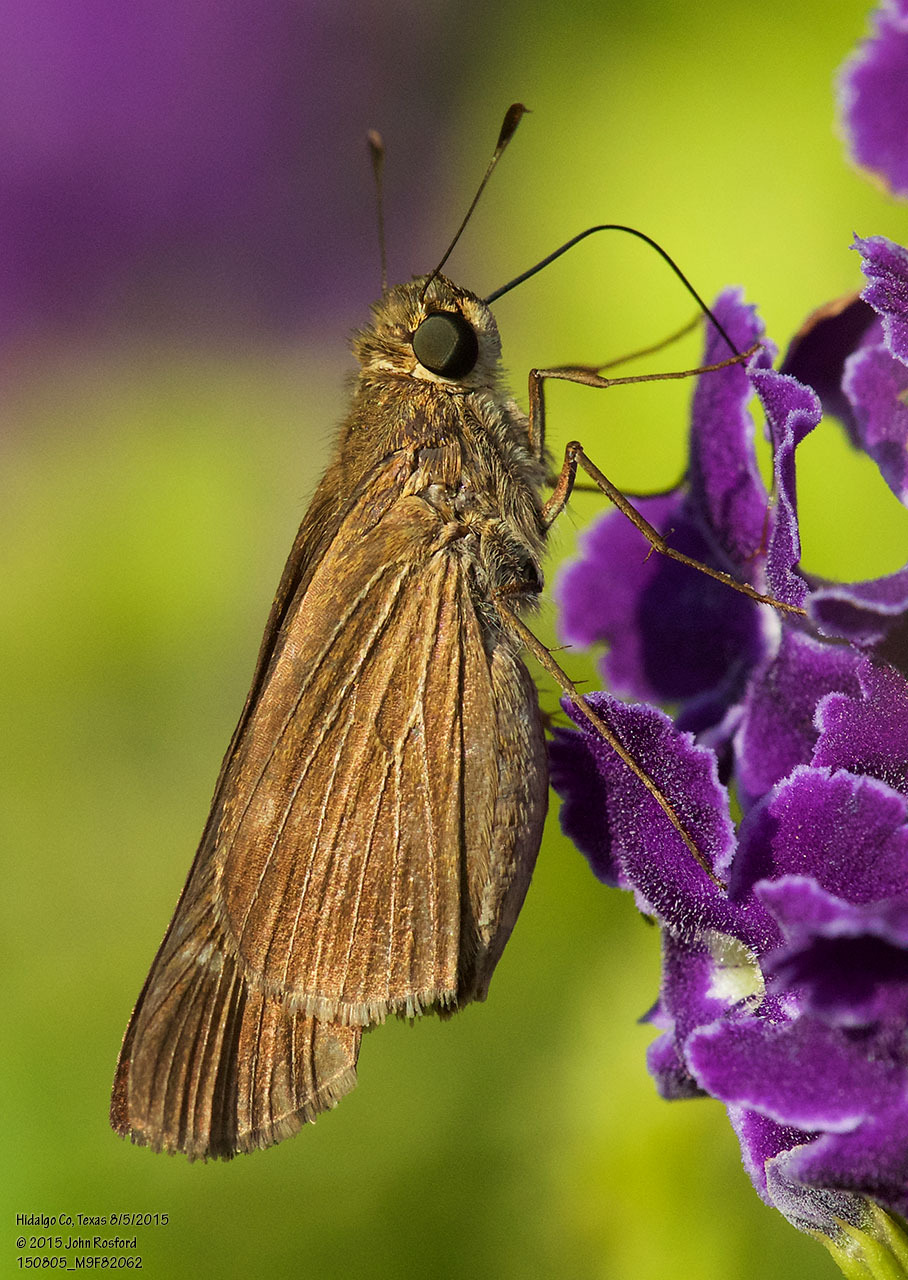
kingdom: Animalia
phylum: Arthropoda
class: Insecta
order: Lepidoptera
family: Hesperiidae
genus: Panoquina
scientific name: Panoquina ocola
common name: Ocola skipper
